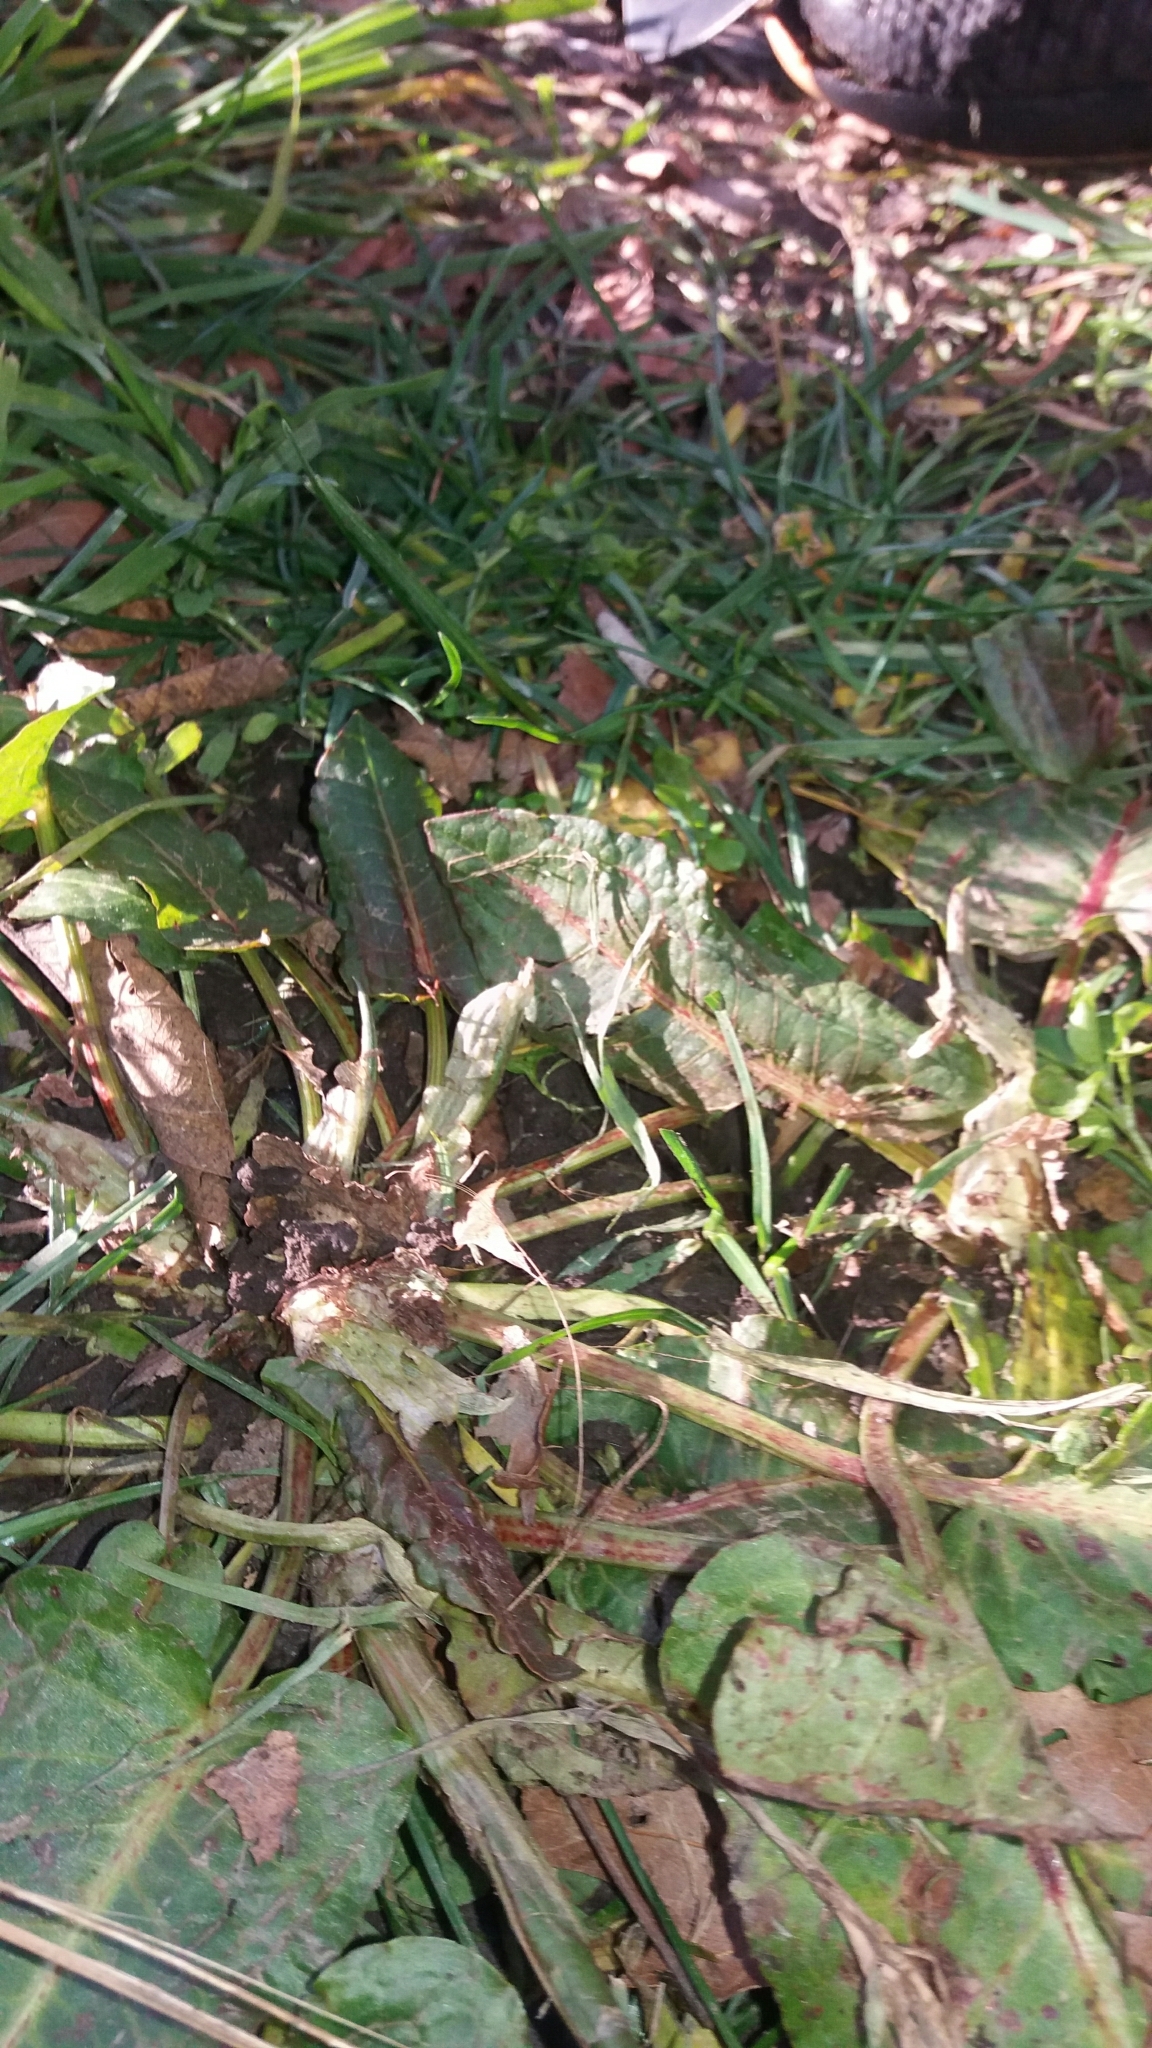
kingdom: Plantae
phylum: Tracheophyta
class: Magnoliopsida
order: Caryophyllales
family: Polygonaceae
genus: Rumex
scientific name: Rumex obtusifolius
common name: Bitter dock
